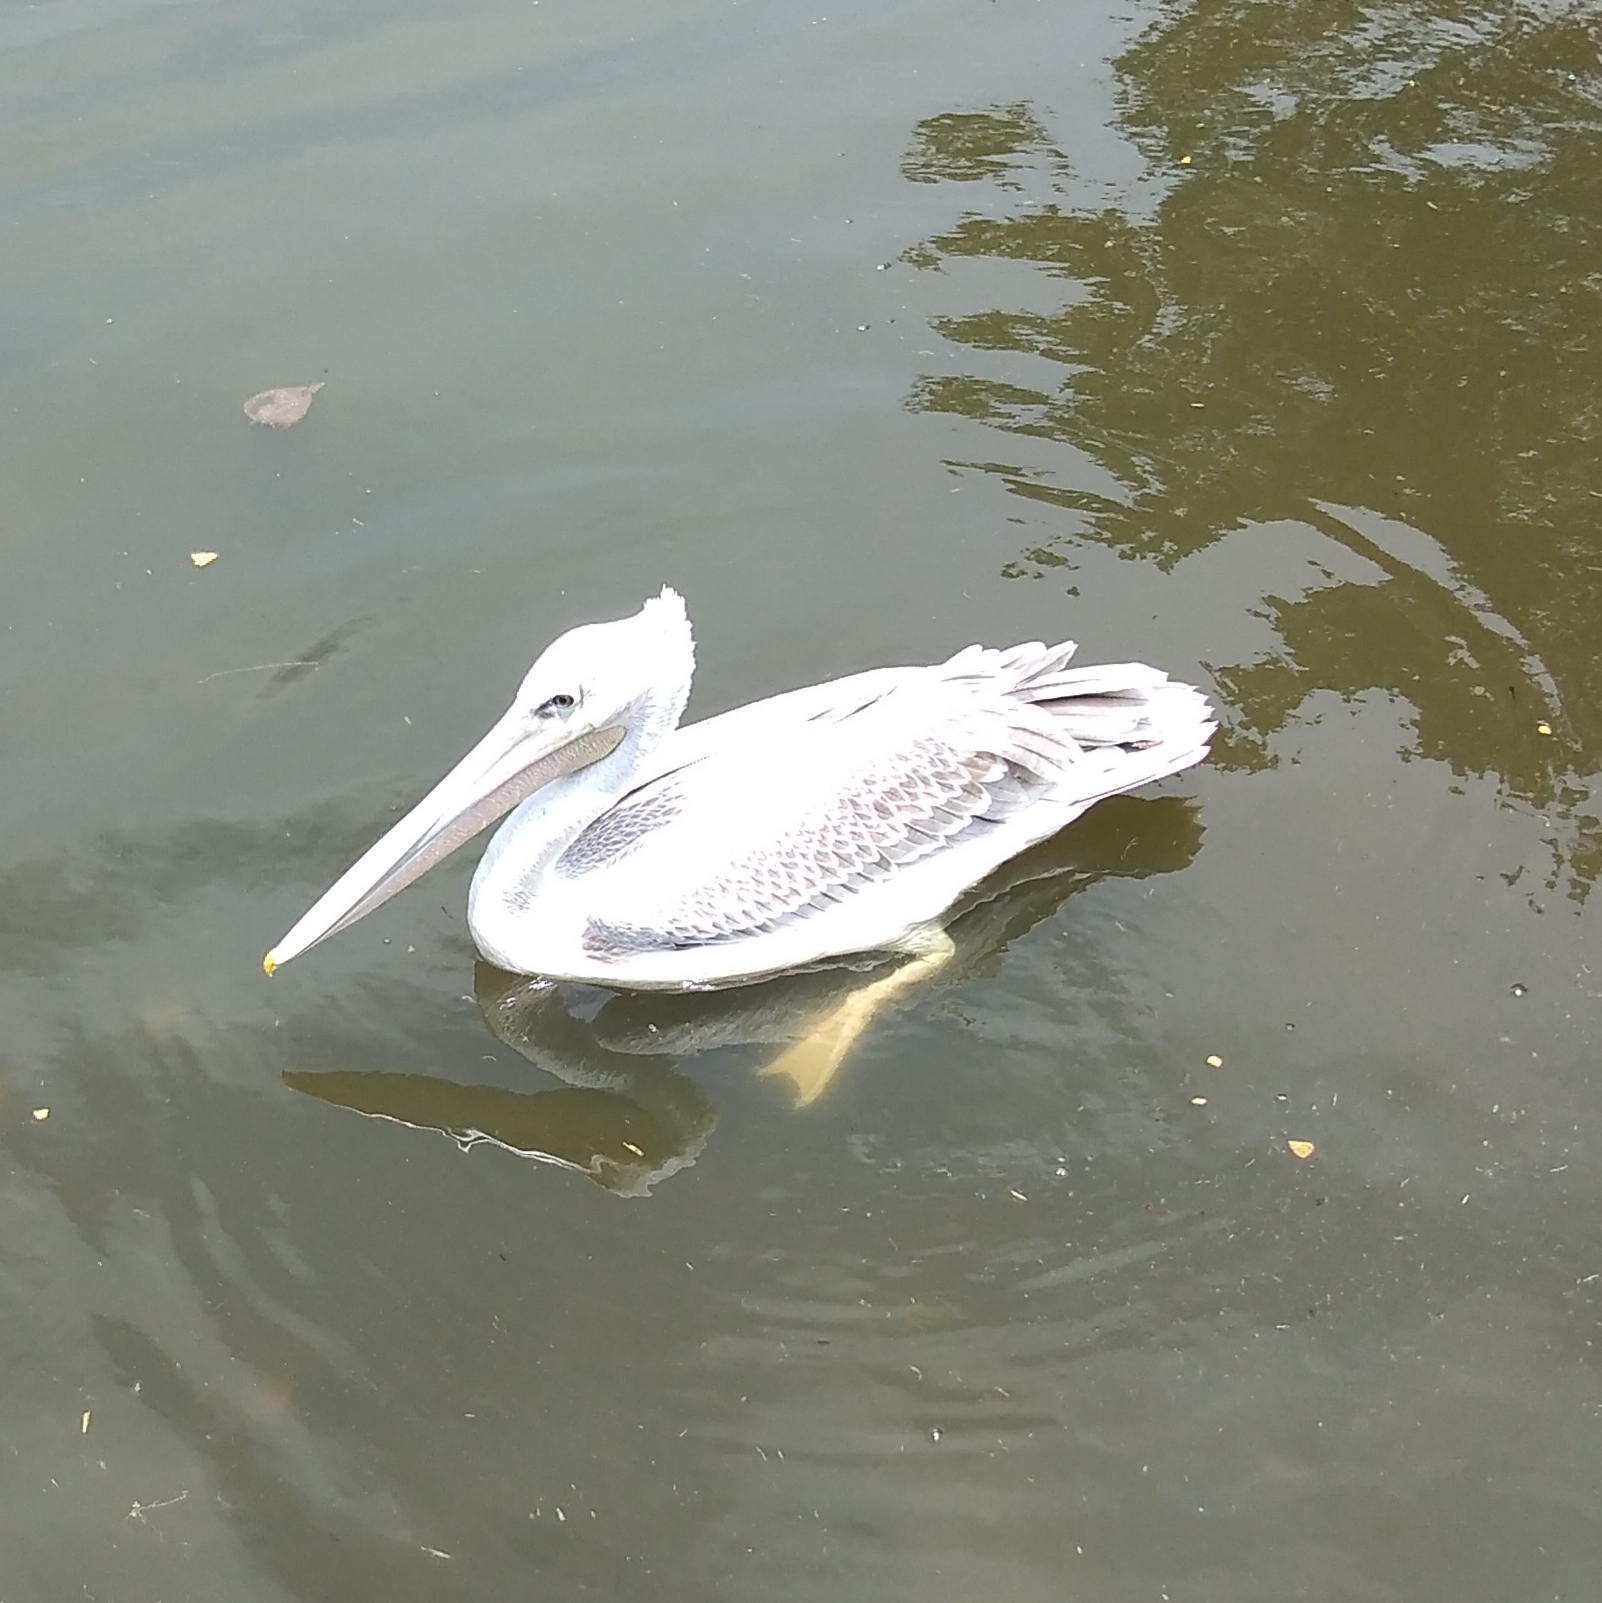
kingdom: Animalia
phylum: Chordata
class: Aves
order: Pelecaniformes
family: Pelecanidae
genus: Pelecanus
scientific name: Pelecanus rufescens
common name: Pink-backed pelican
